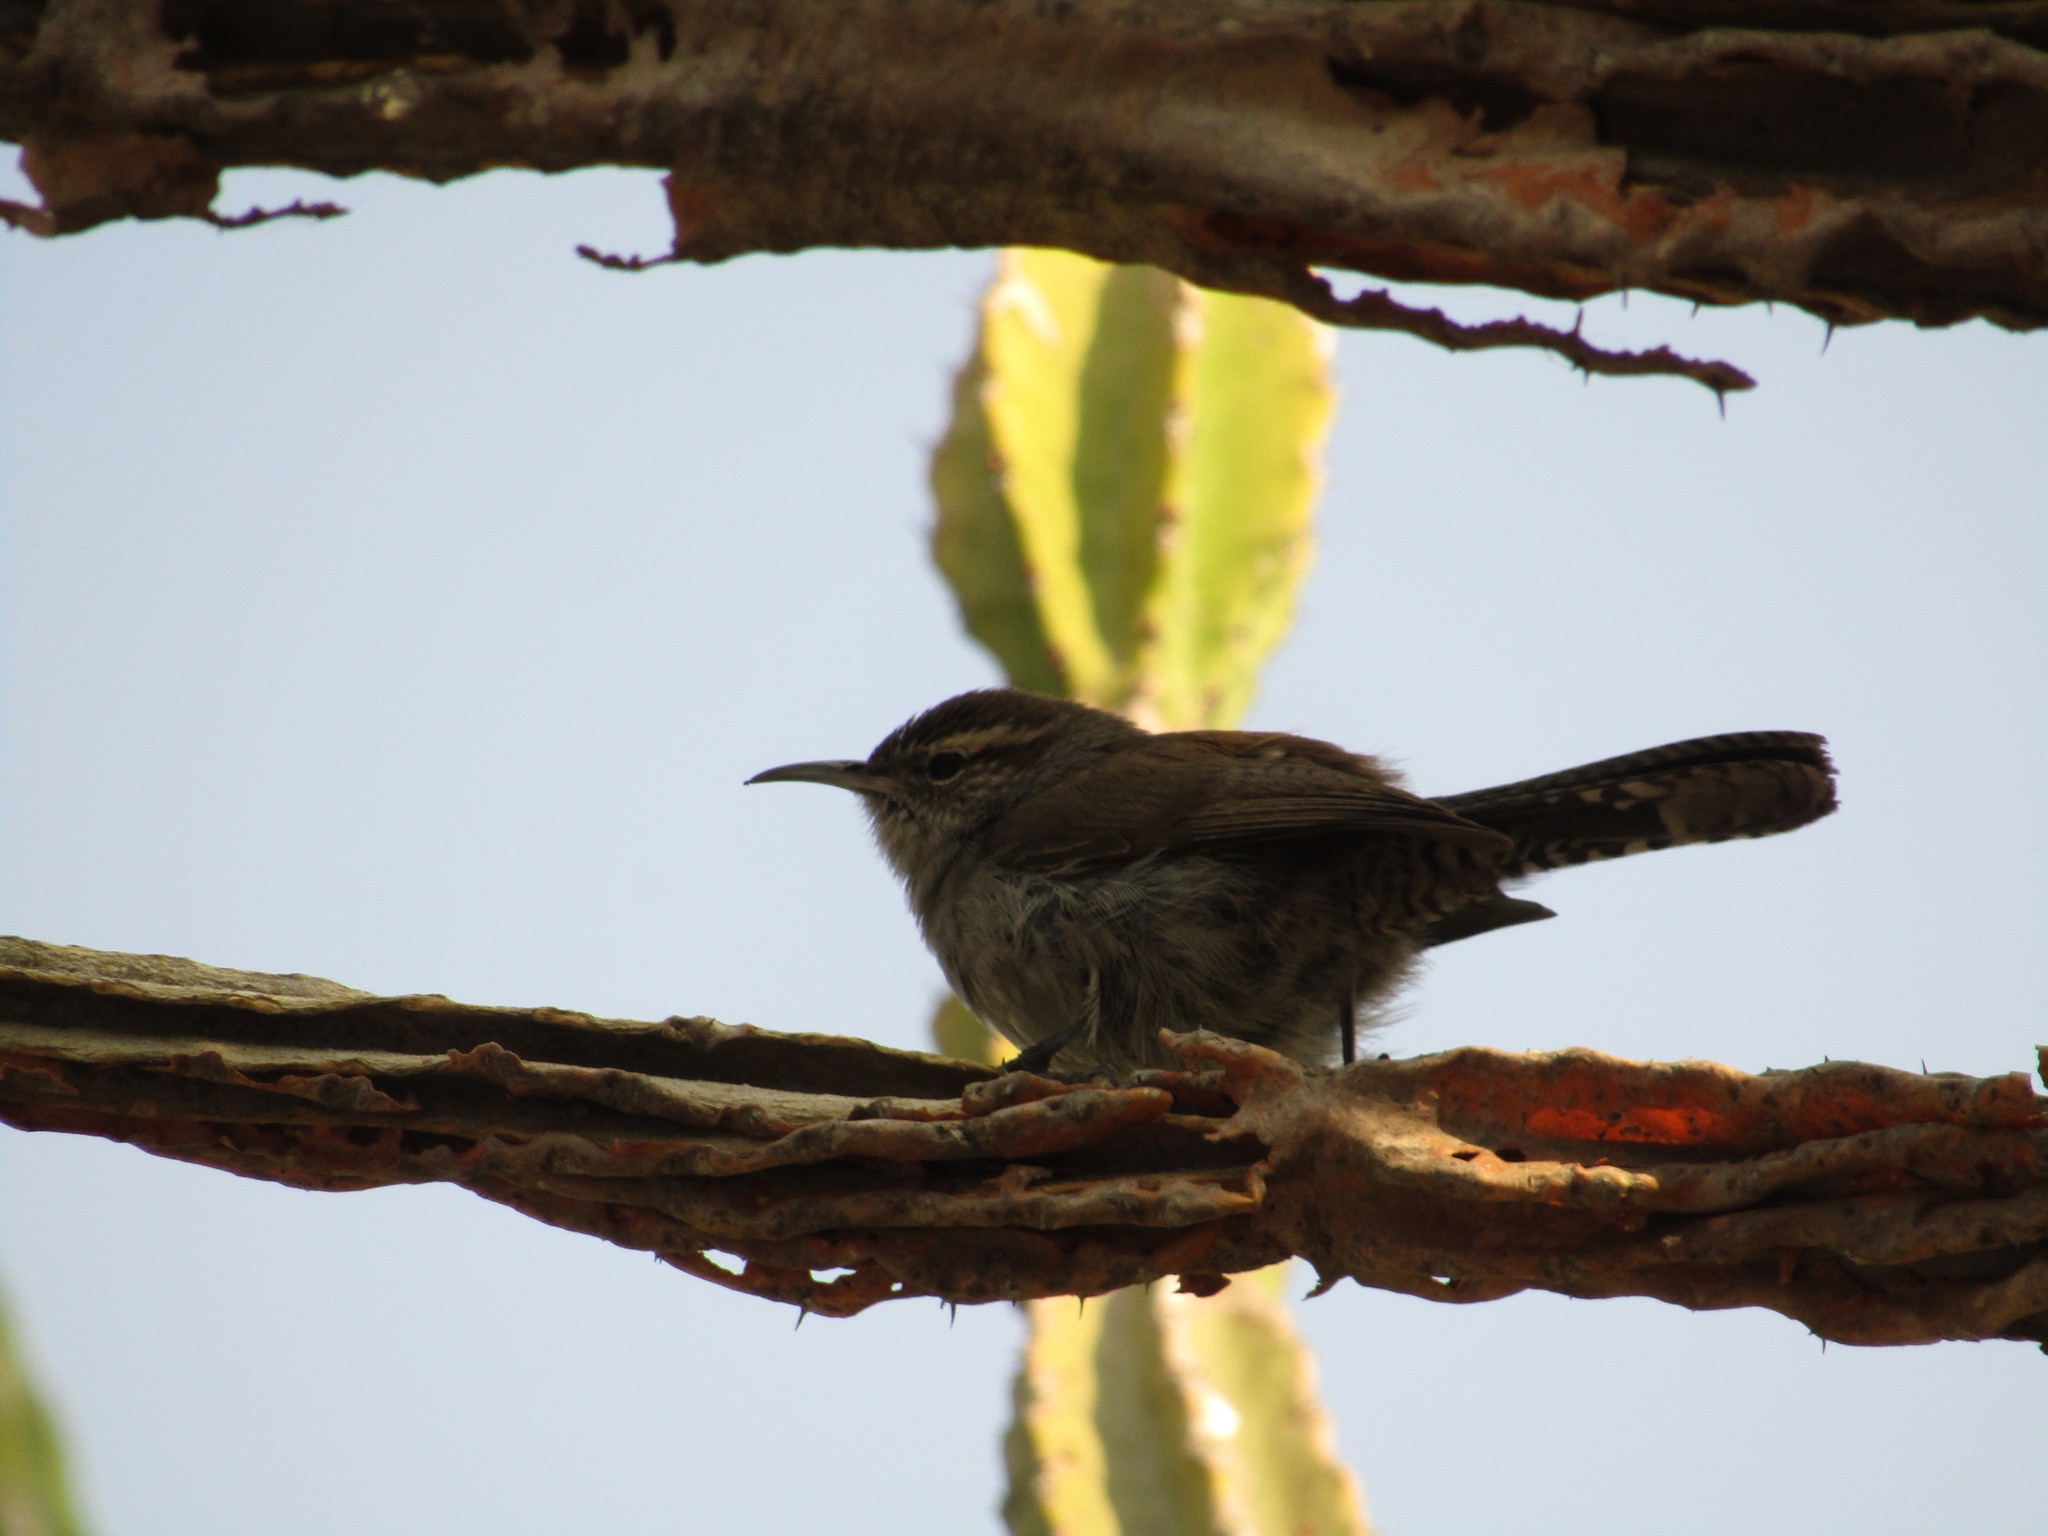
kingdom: Animalia
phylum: Chordata
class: Aves
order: Passeriformes
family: Troglodytidae
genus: Thryomanes
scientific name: Thryomanes bewickii
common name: Bewick's wren
